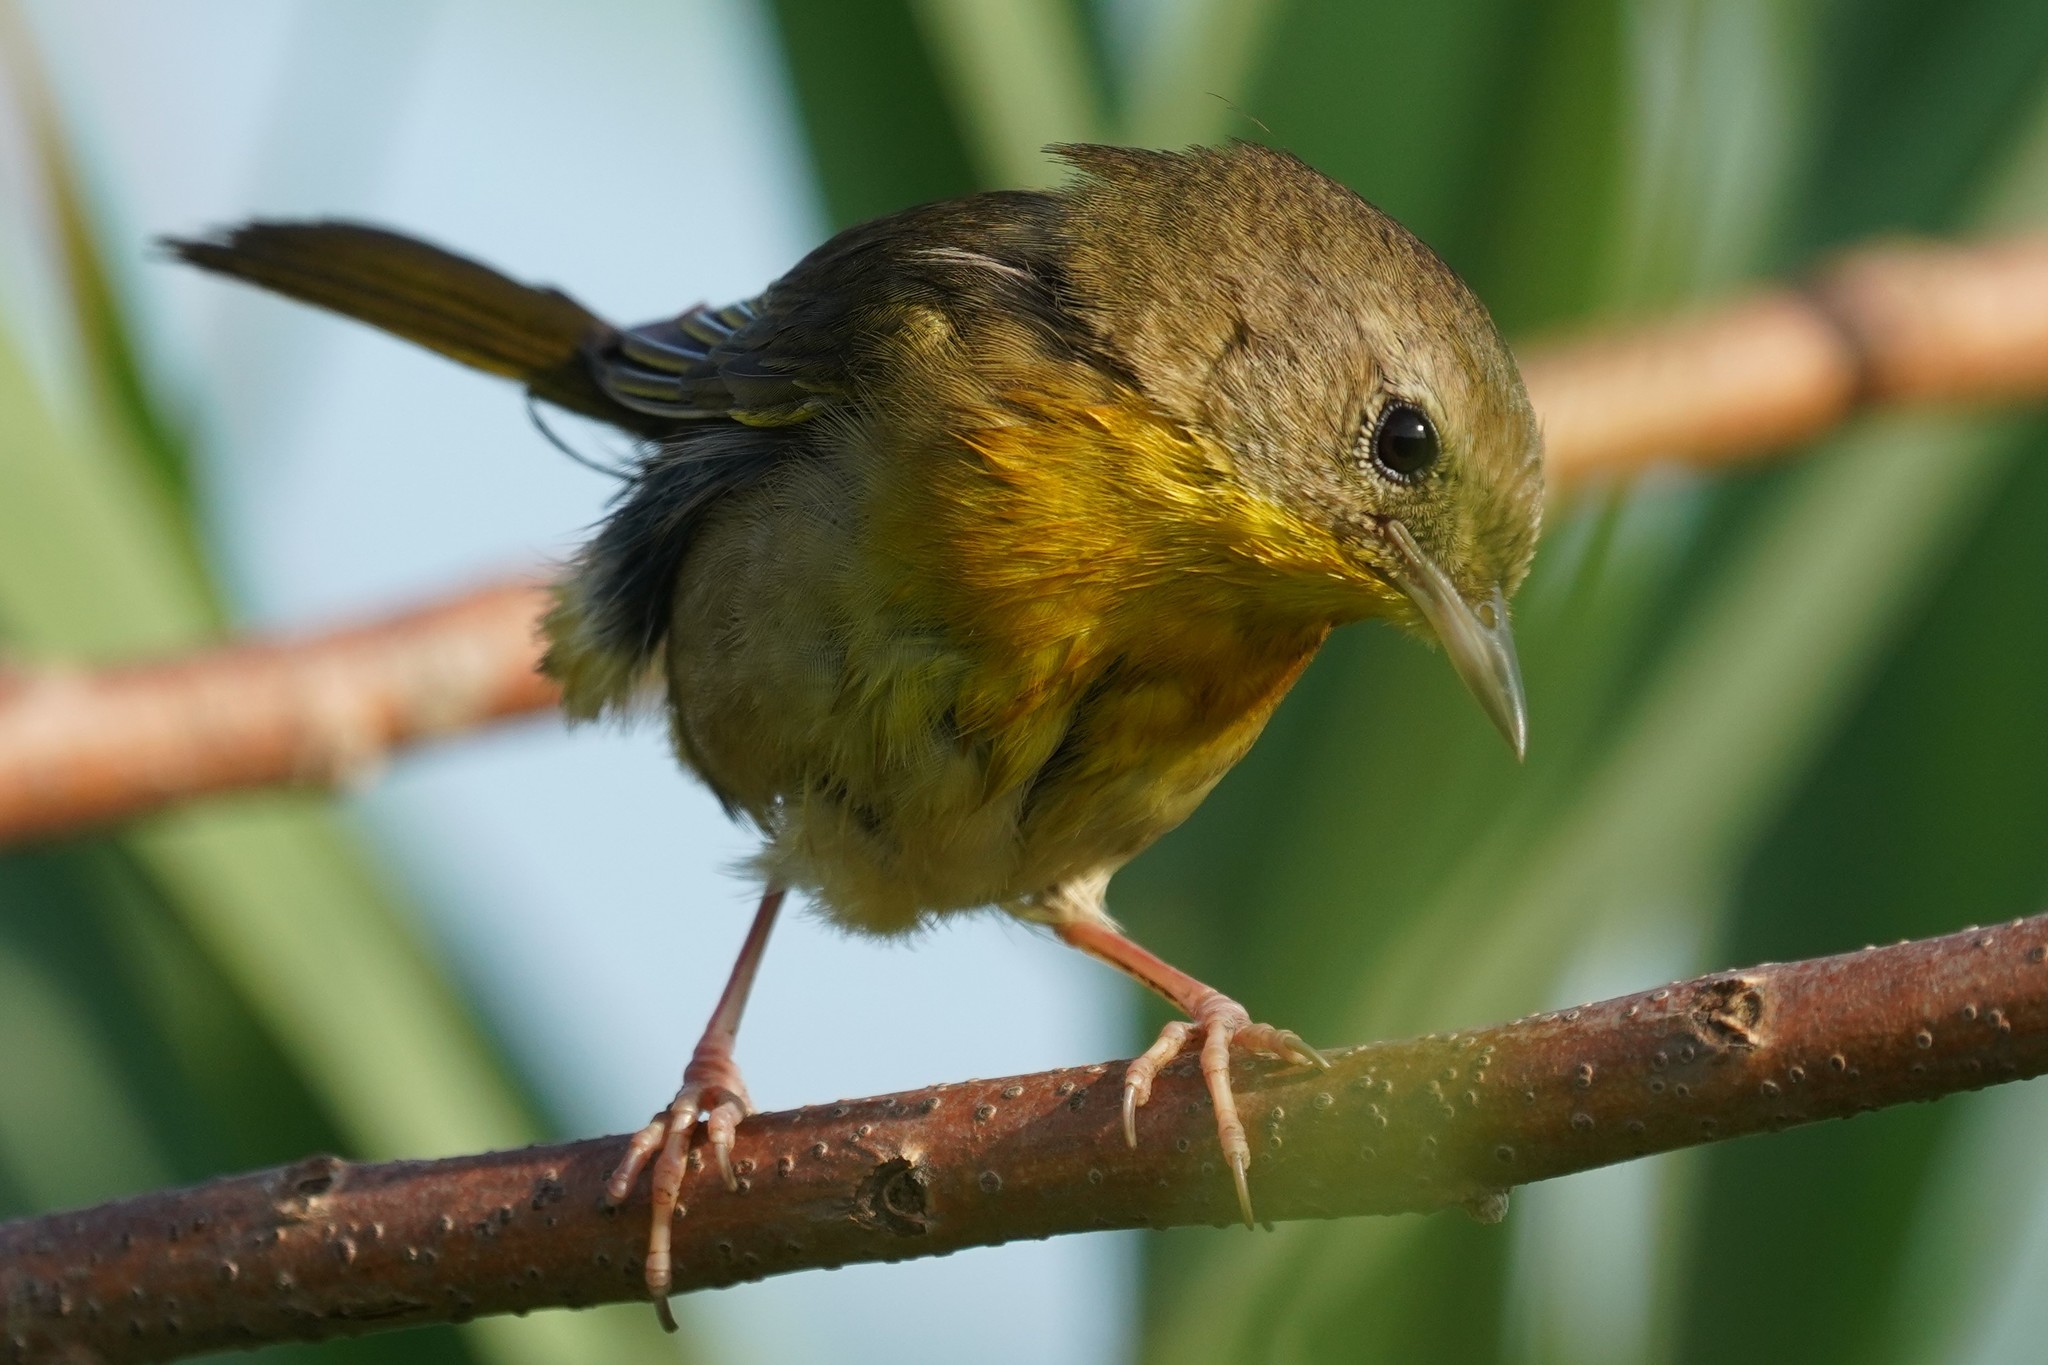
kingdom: Animalia
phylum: Chordata
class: Aves
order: Passeriformes
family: Parulidae
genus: Geothlypis
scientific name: Geothlypis trichas
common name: Common yellowthroat
